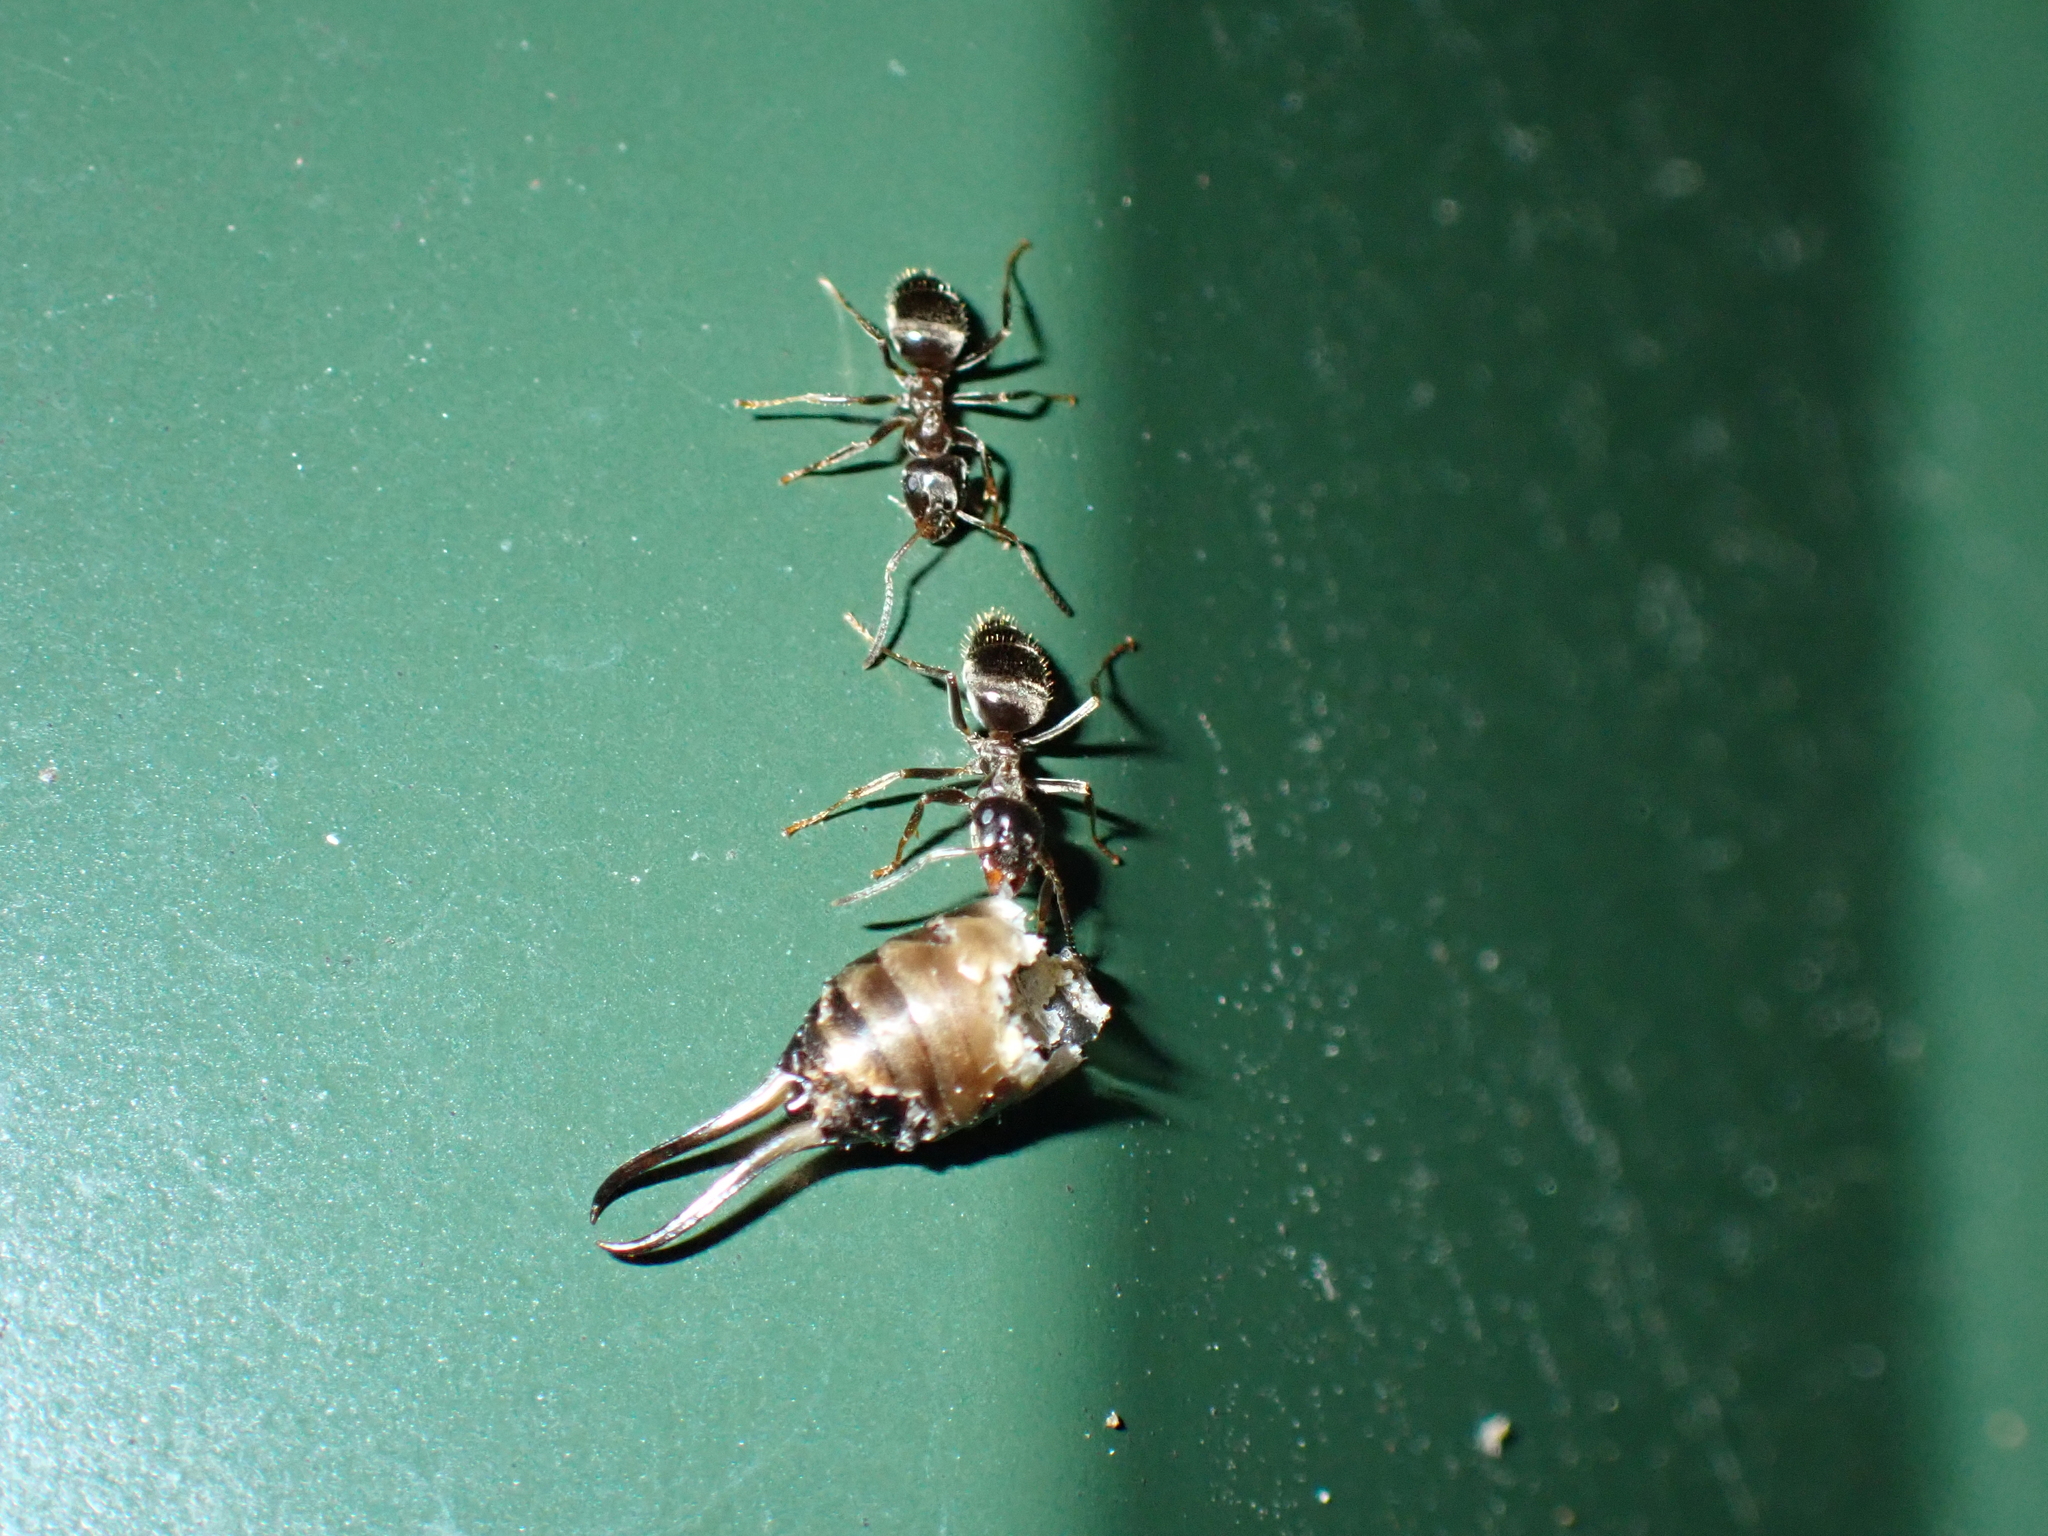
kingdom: Animalia
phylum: Arthropoda
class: Insecta
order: Hymenoptera
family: Formicidae
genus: Lasius
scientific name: Lasius
